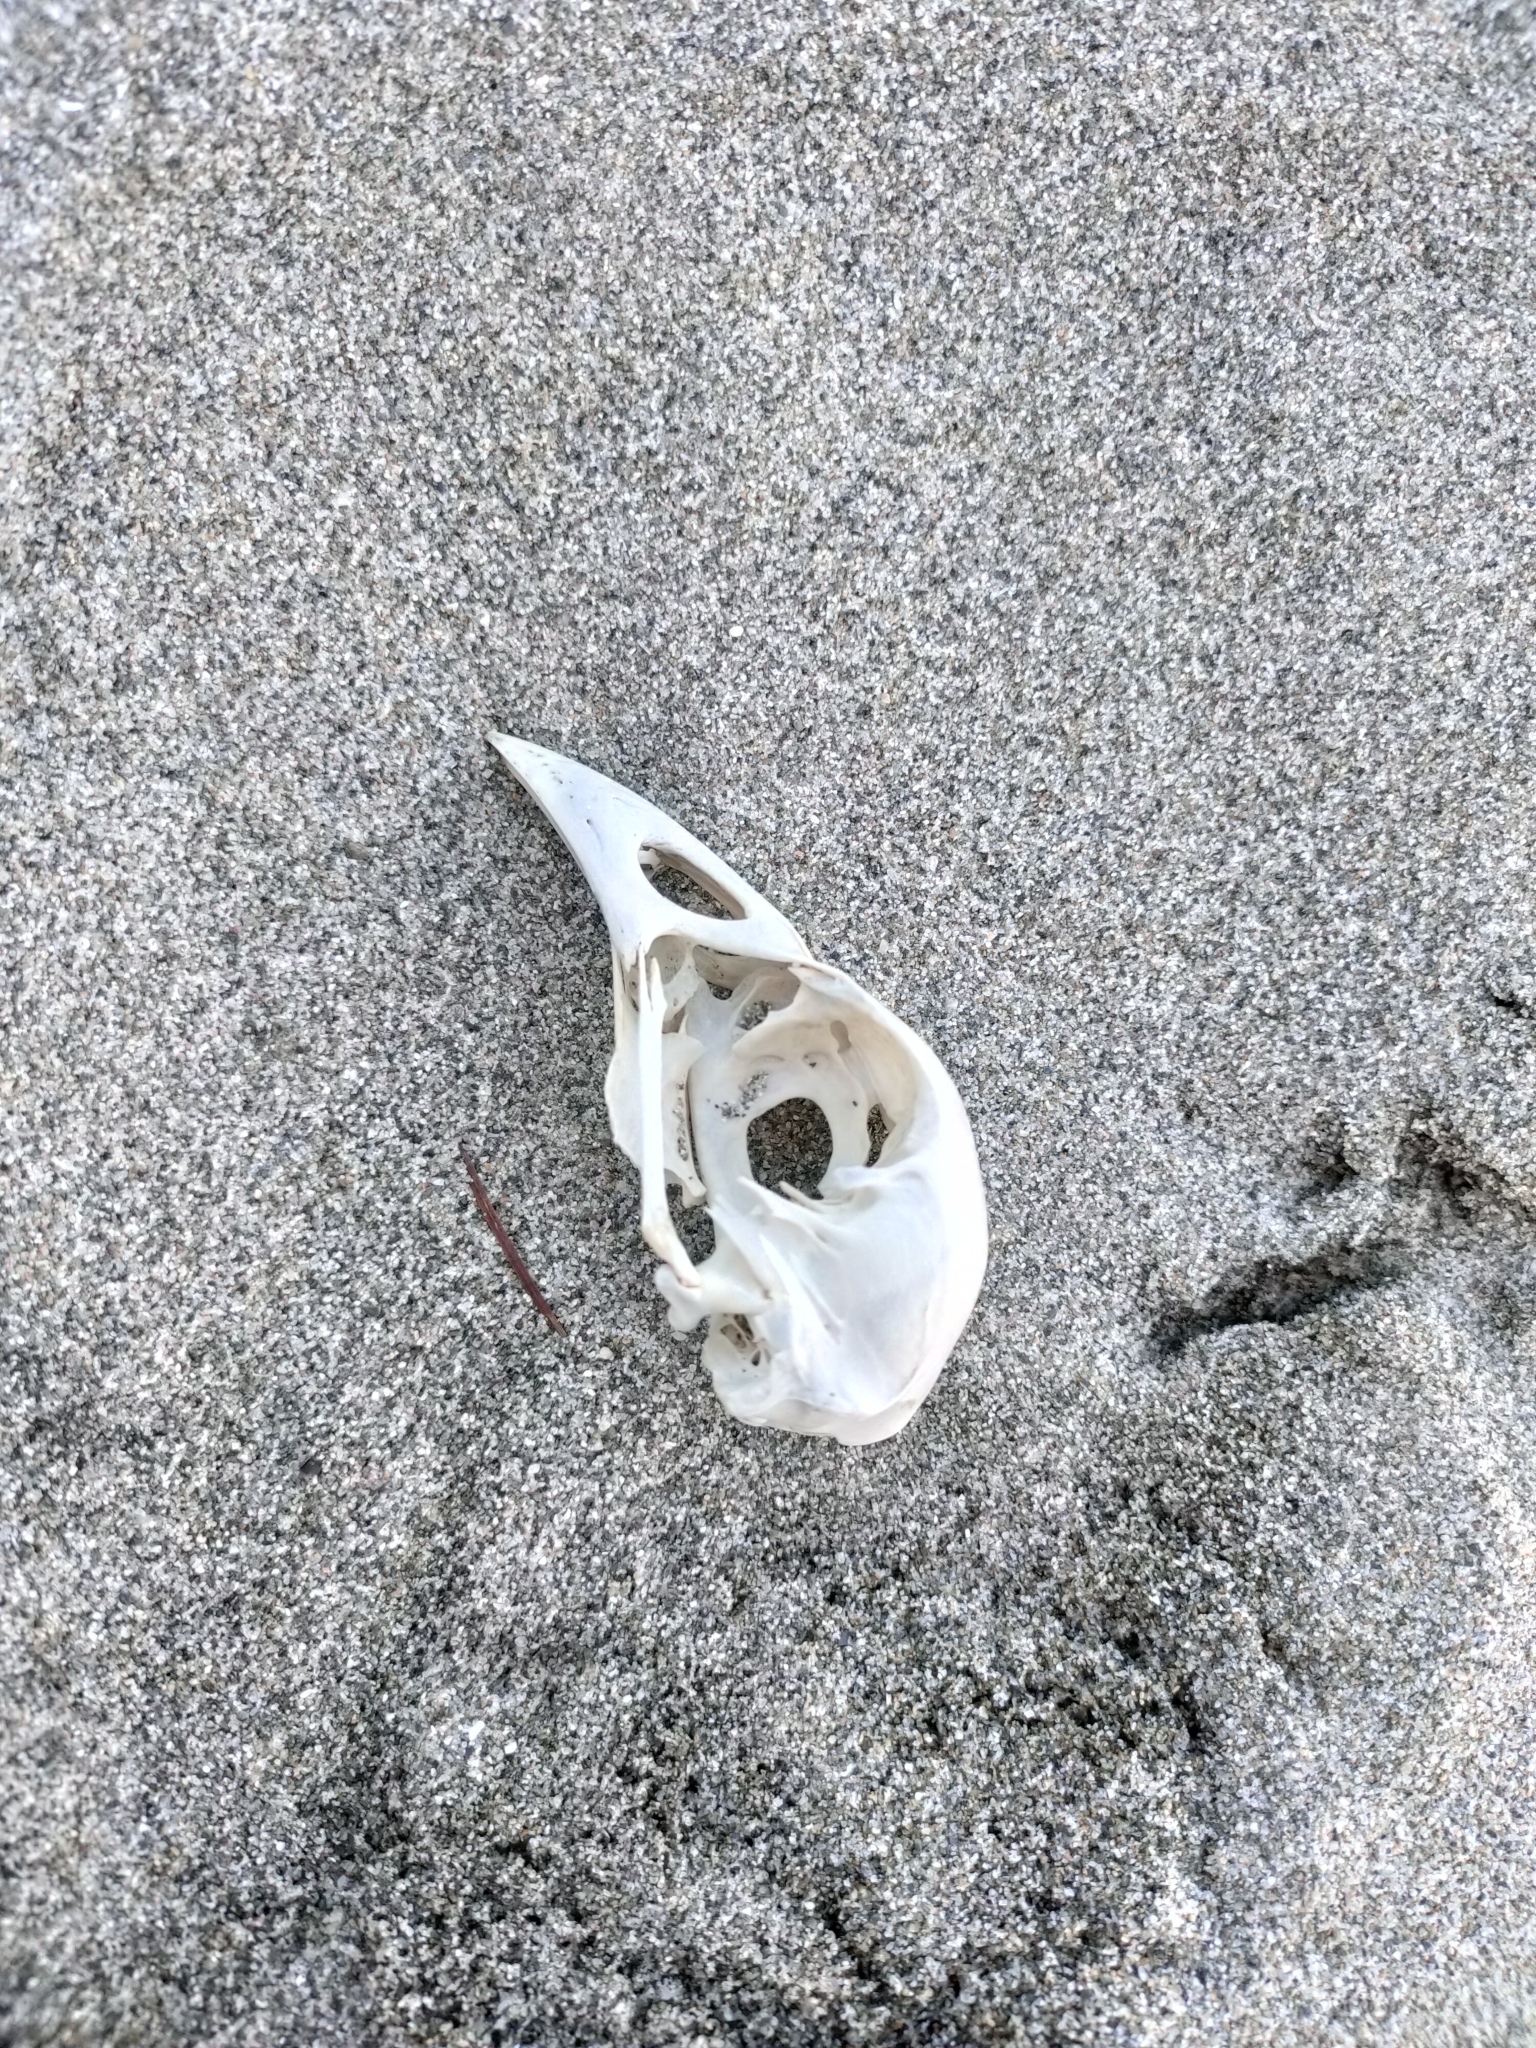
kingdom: Animalia
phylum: Chordata
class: Aves
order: Gruiformes
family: Rallidae
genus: Porphyrio
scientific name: Porphyrio melanotus
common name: Australasian swamphen
